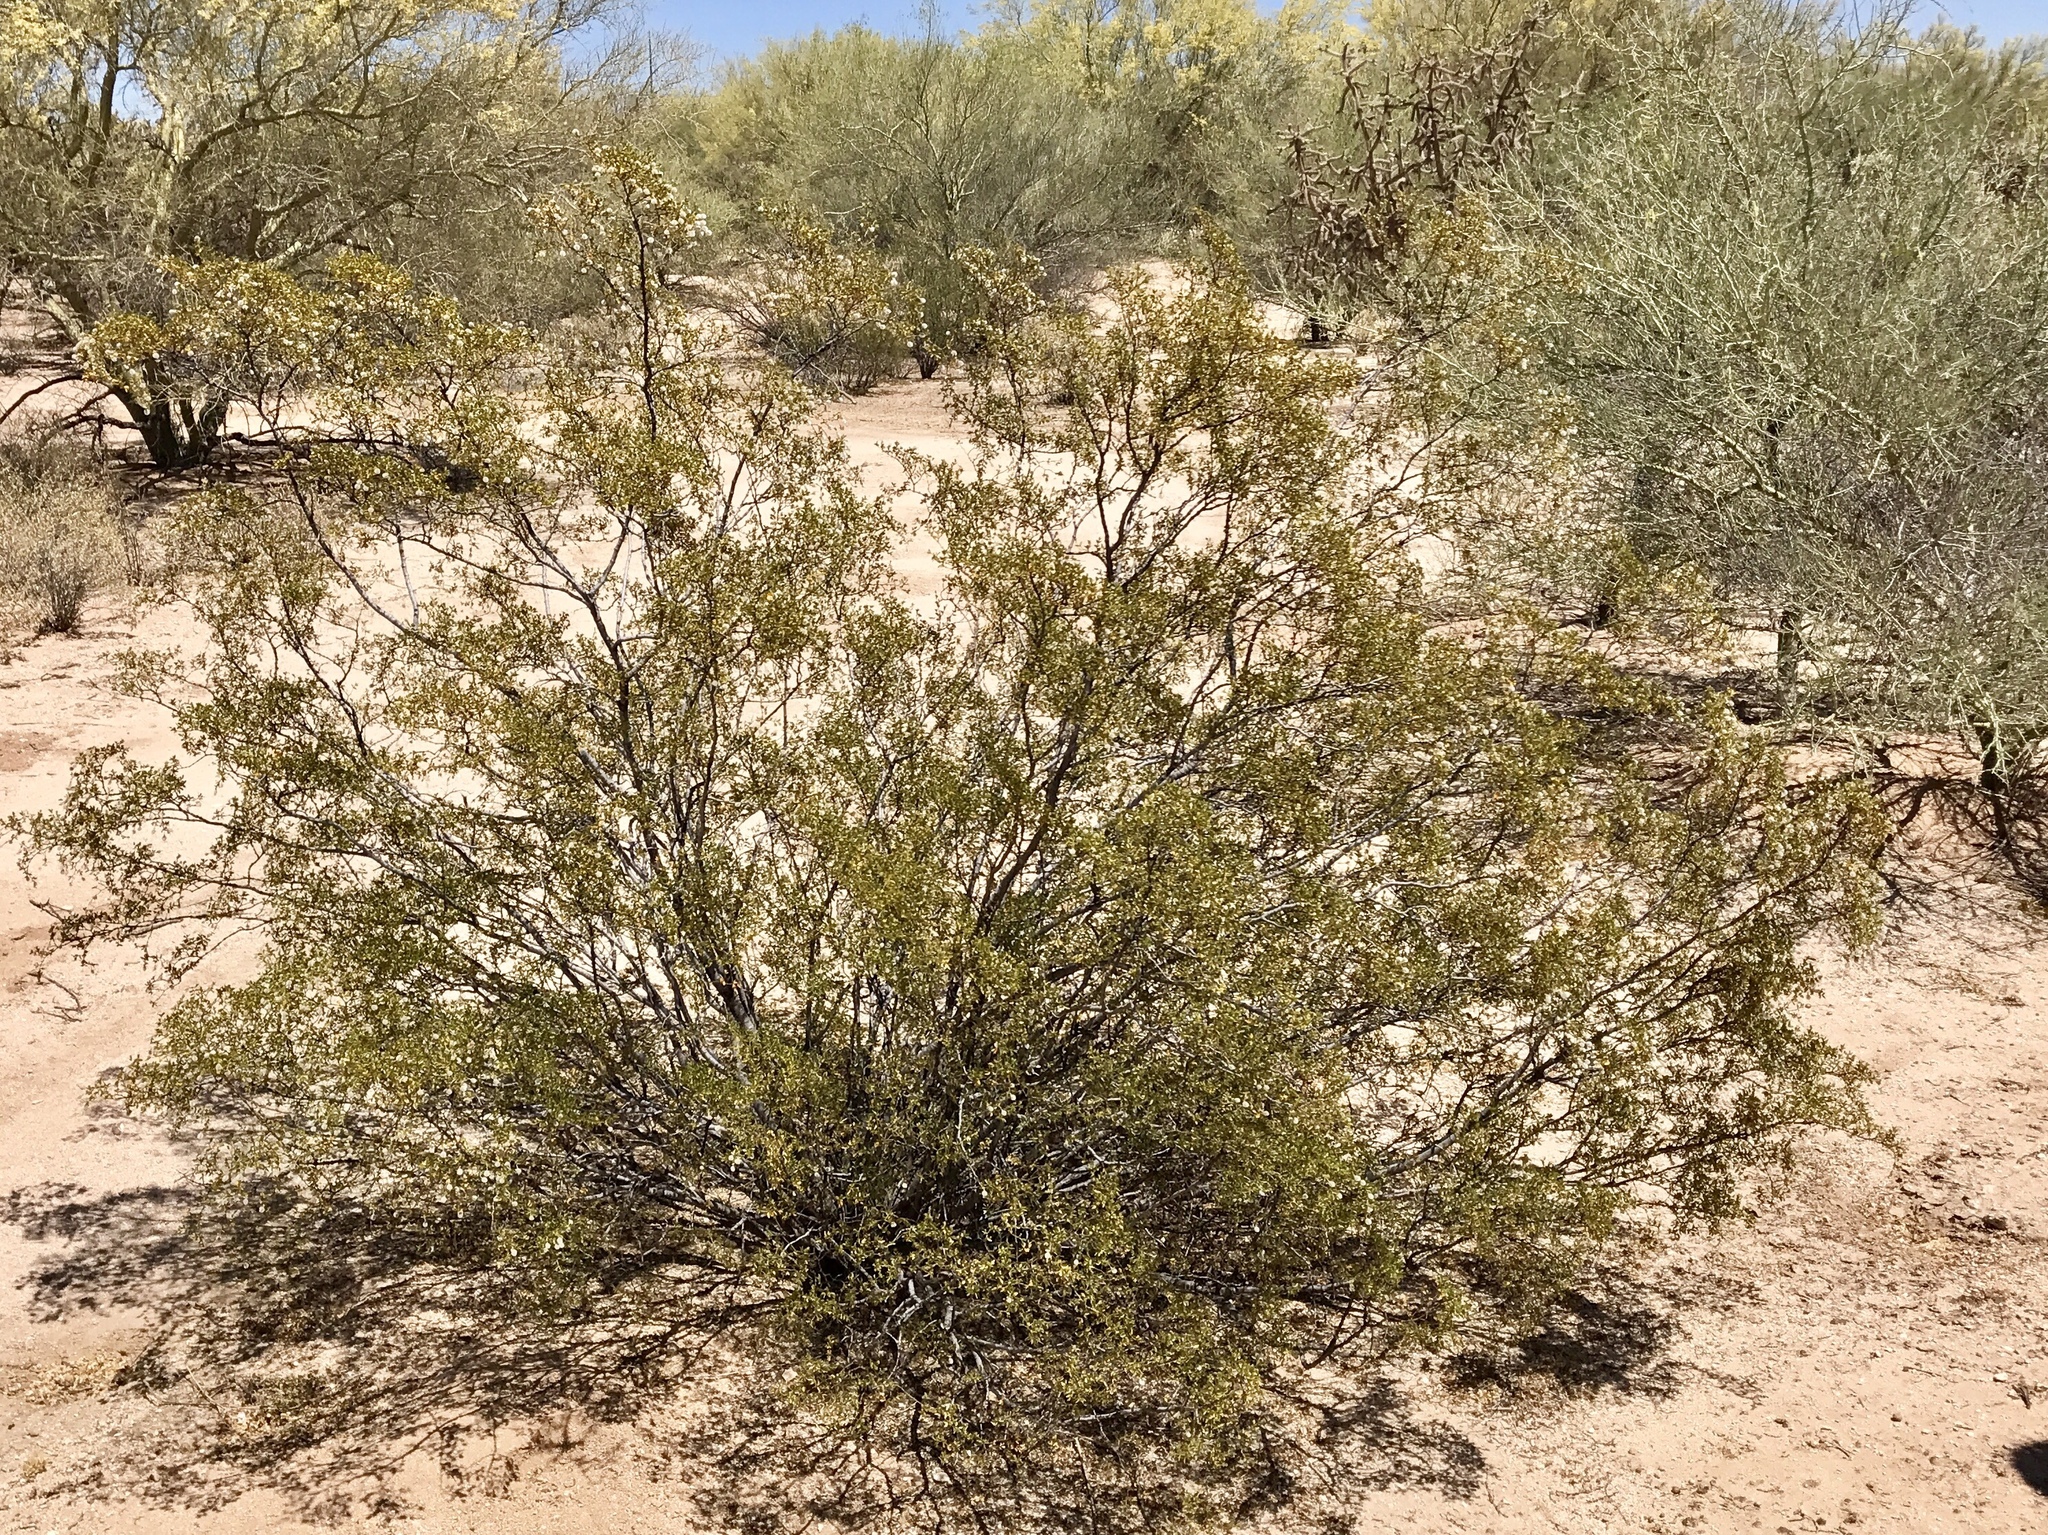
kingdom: Plantae
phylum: Tracheophyta
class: Magnoliopsida
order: Zygophyllales
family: Zygophyllaceae
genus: Larrea
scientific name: Larrea tridentata
